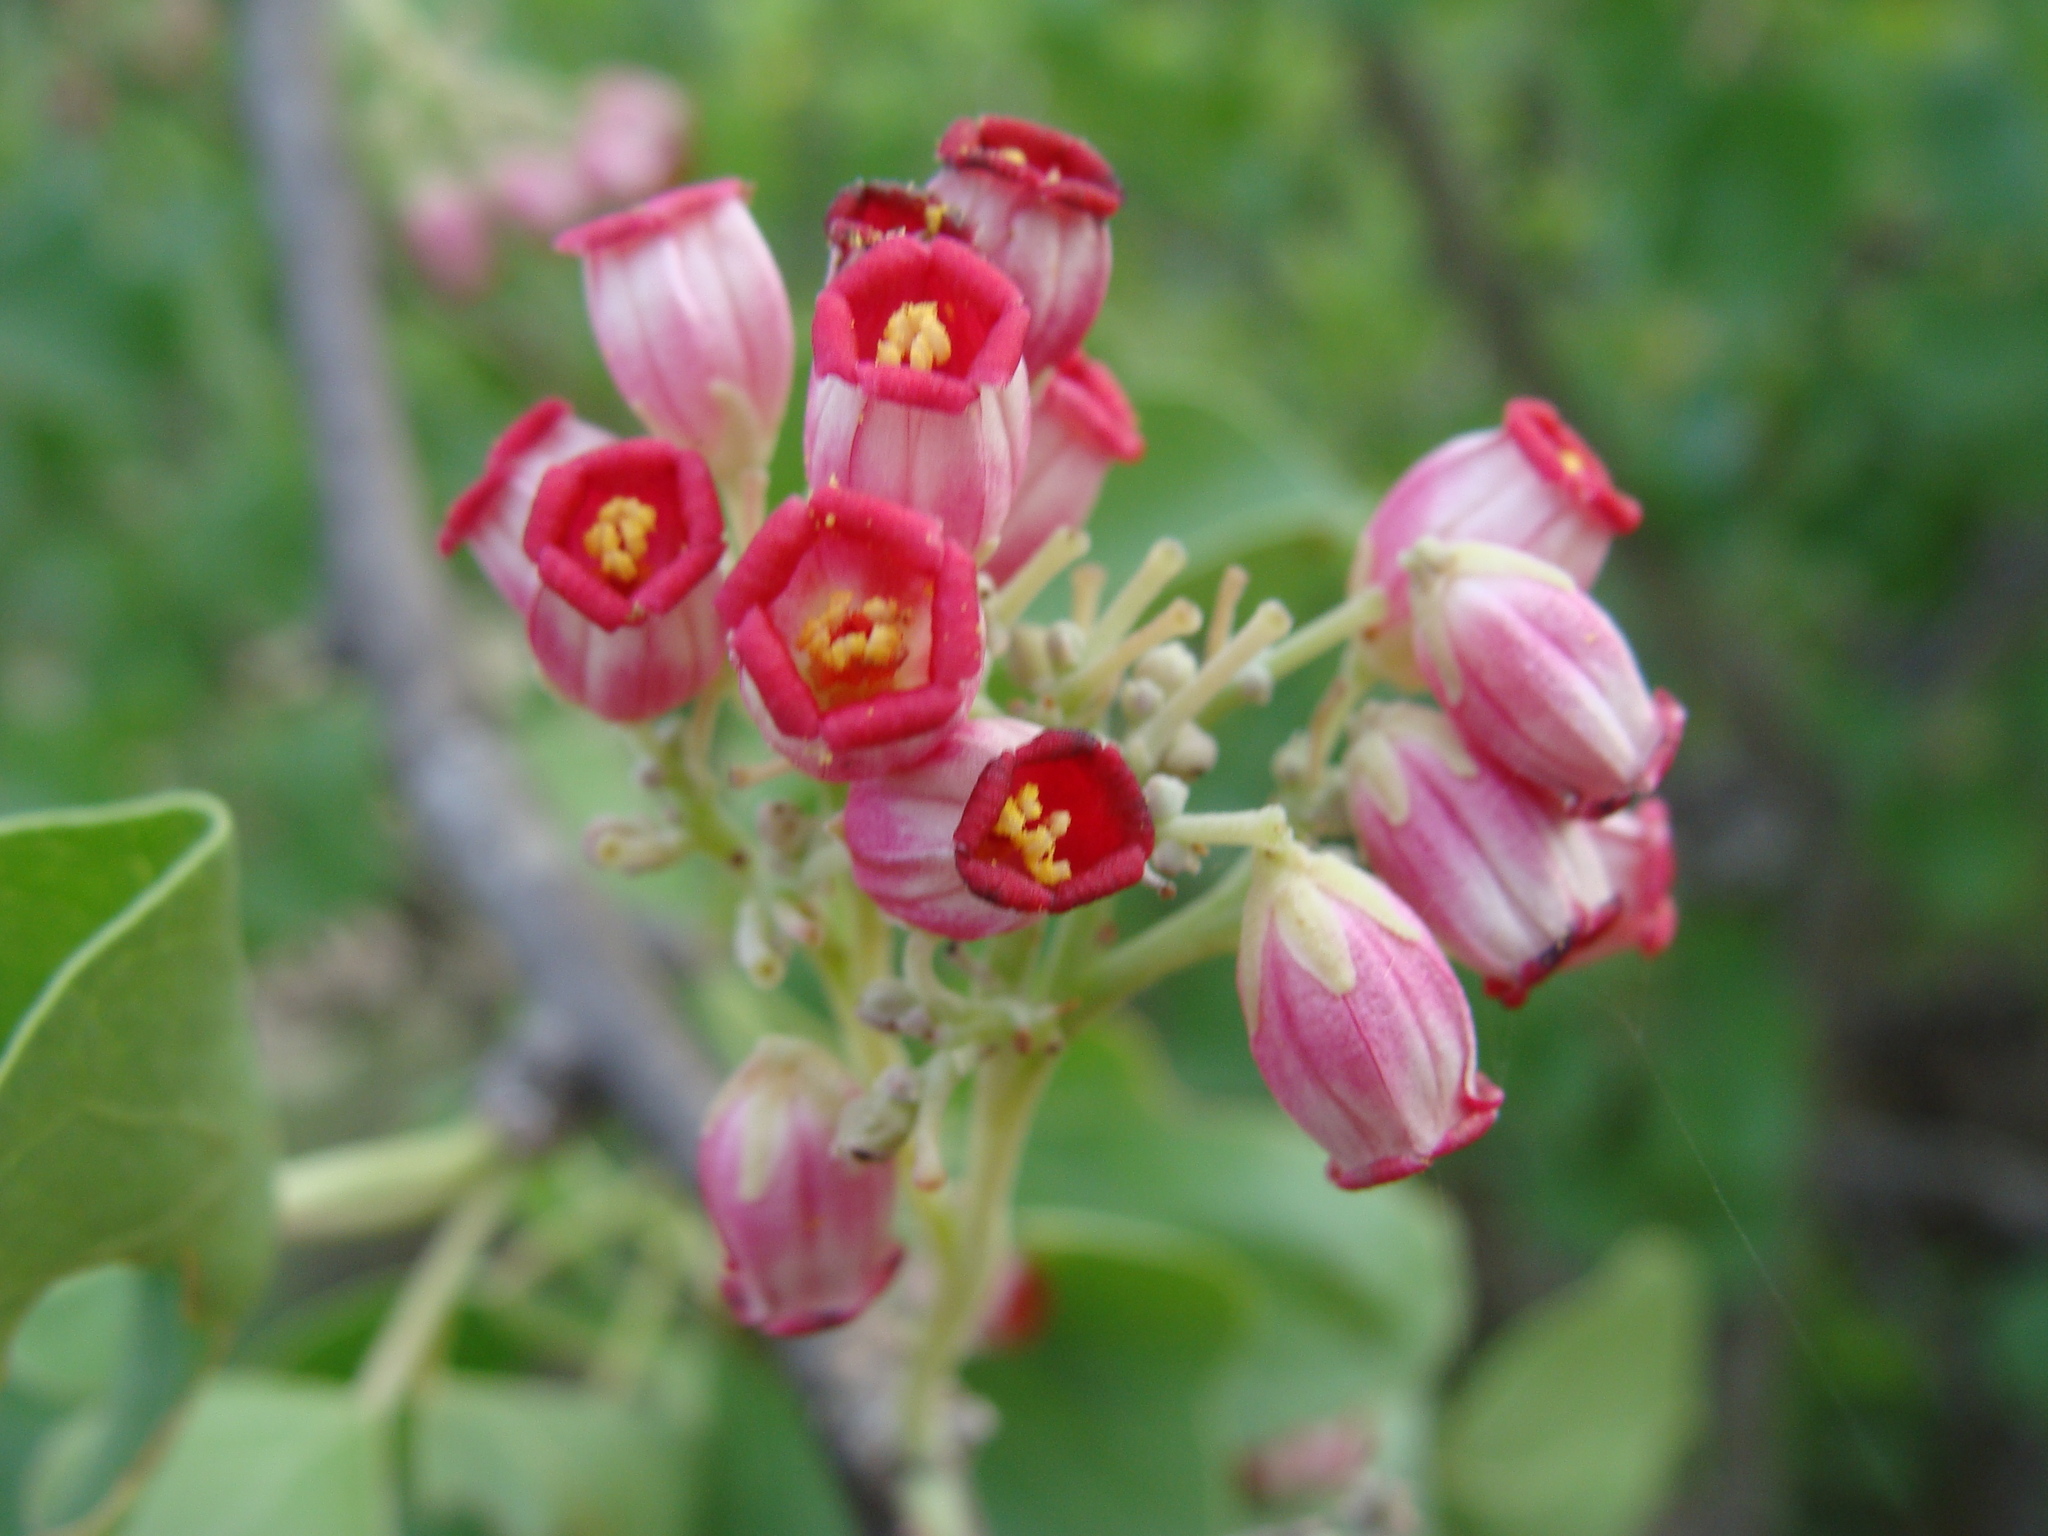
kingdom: Plantae
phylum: Tracheophyta
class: Magnoliopsida
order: Malpighiales
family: Euphorbiaceae
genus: Jatropha
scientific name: Jatropha cinerea
